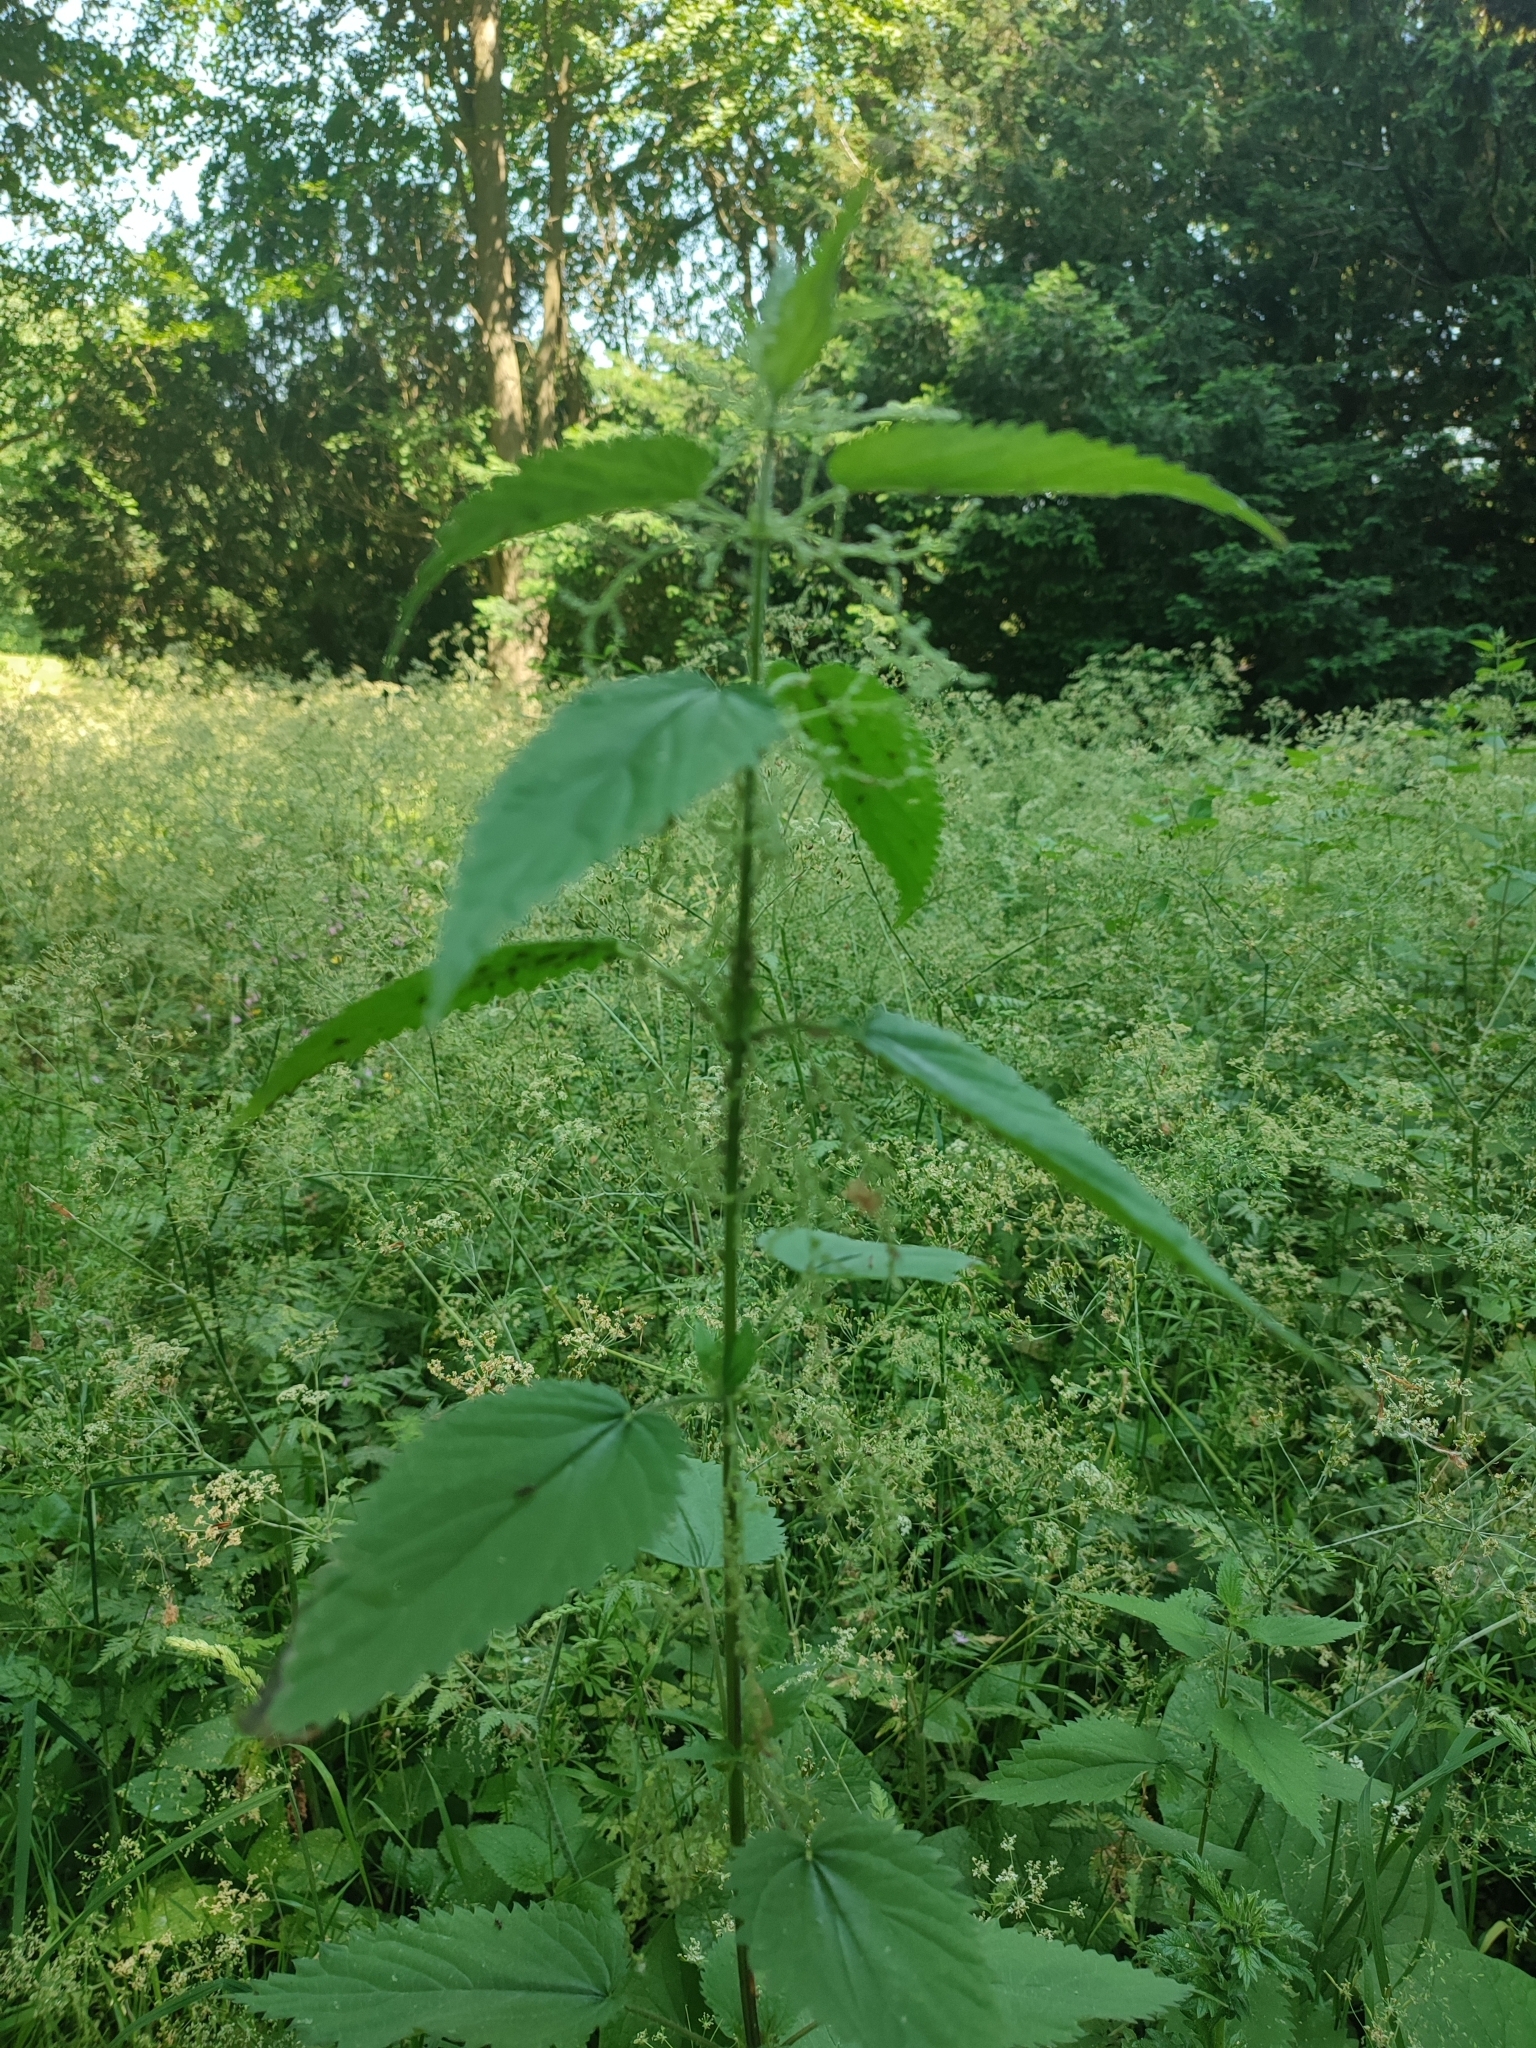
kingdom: Plantae
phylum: Tracheophyta
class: Magnoliopsida
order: Rosales
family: Urticaceae
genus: Urtica
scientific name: Urtica dioica
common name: Common nettle
